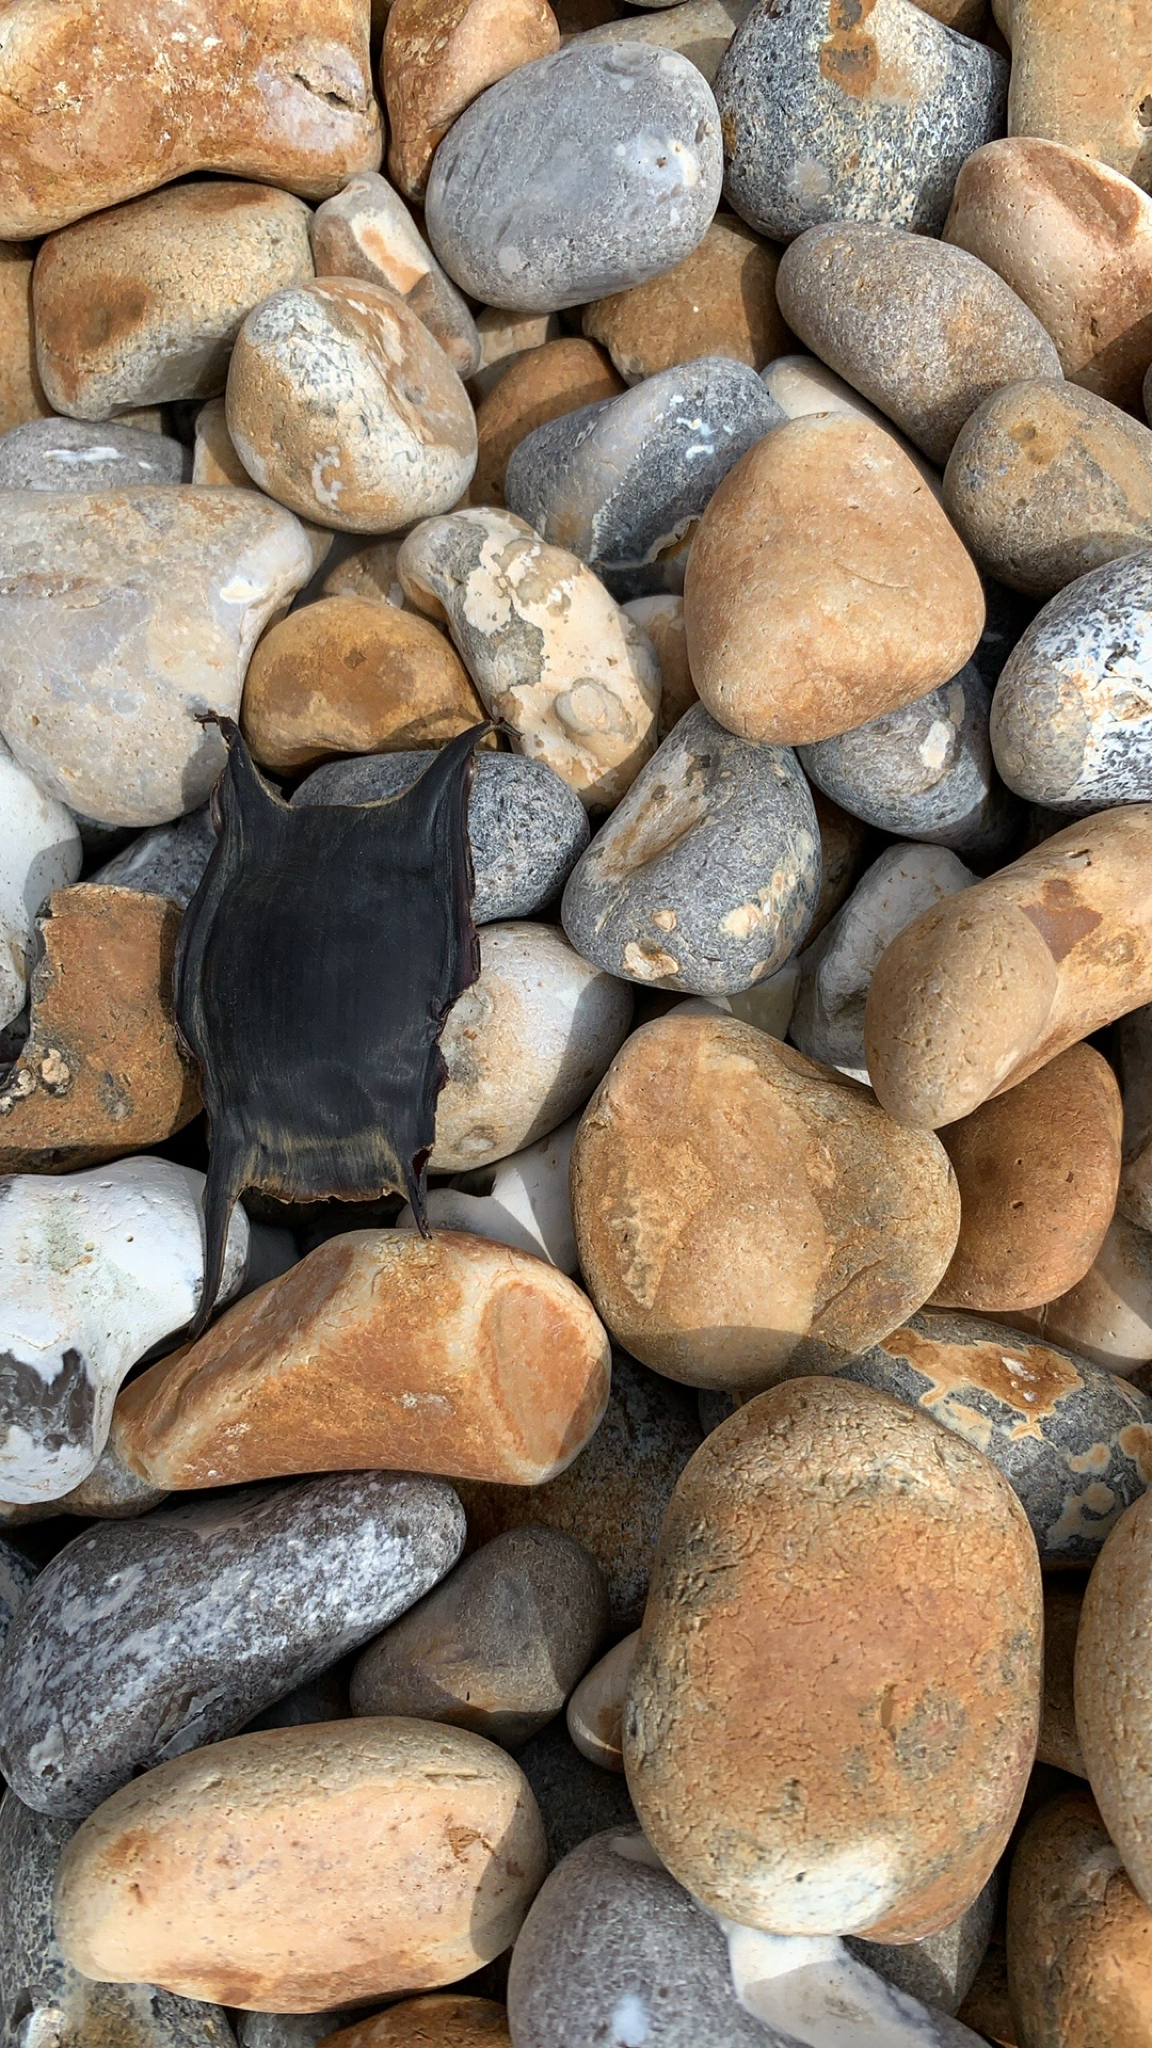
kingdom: Animalia
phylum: Chordata
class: Elasmobranchii
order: Rajiformes
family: Rajidae
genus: Raja
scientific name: Raja clavata
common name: Thornback ray
